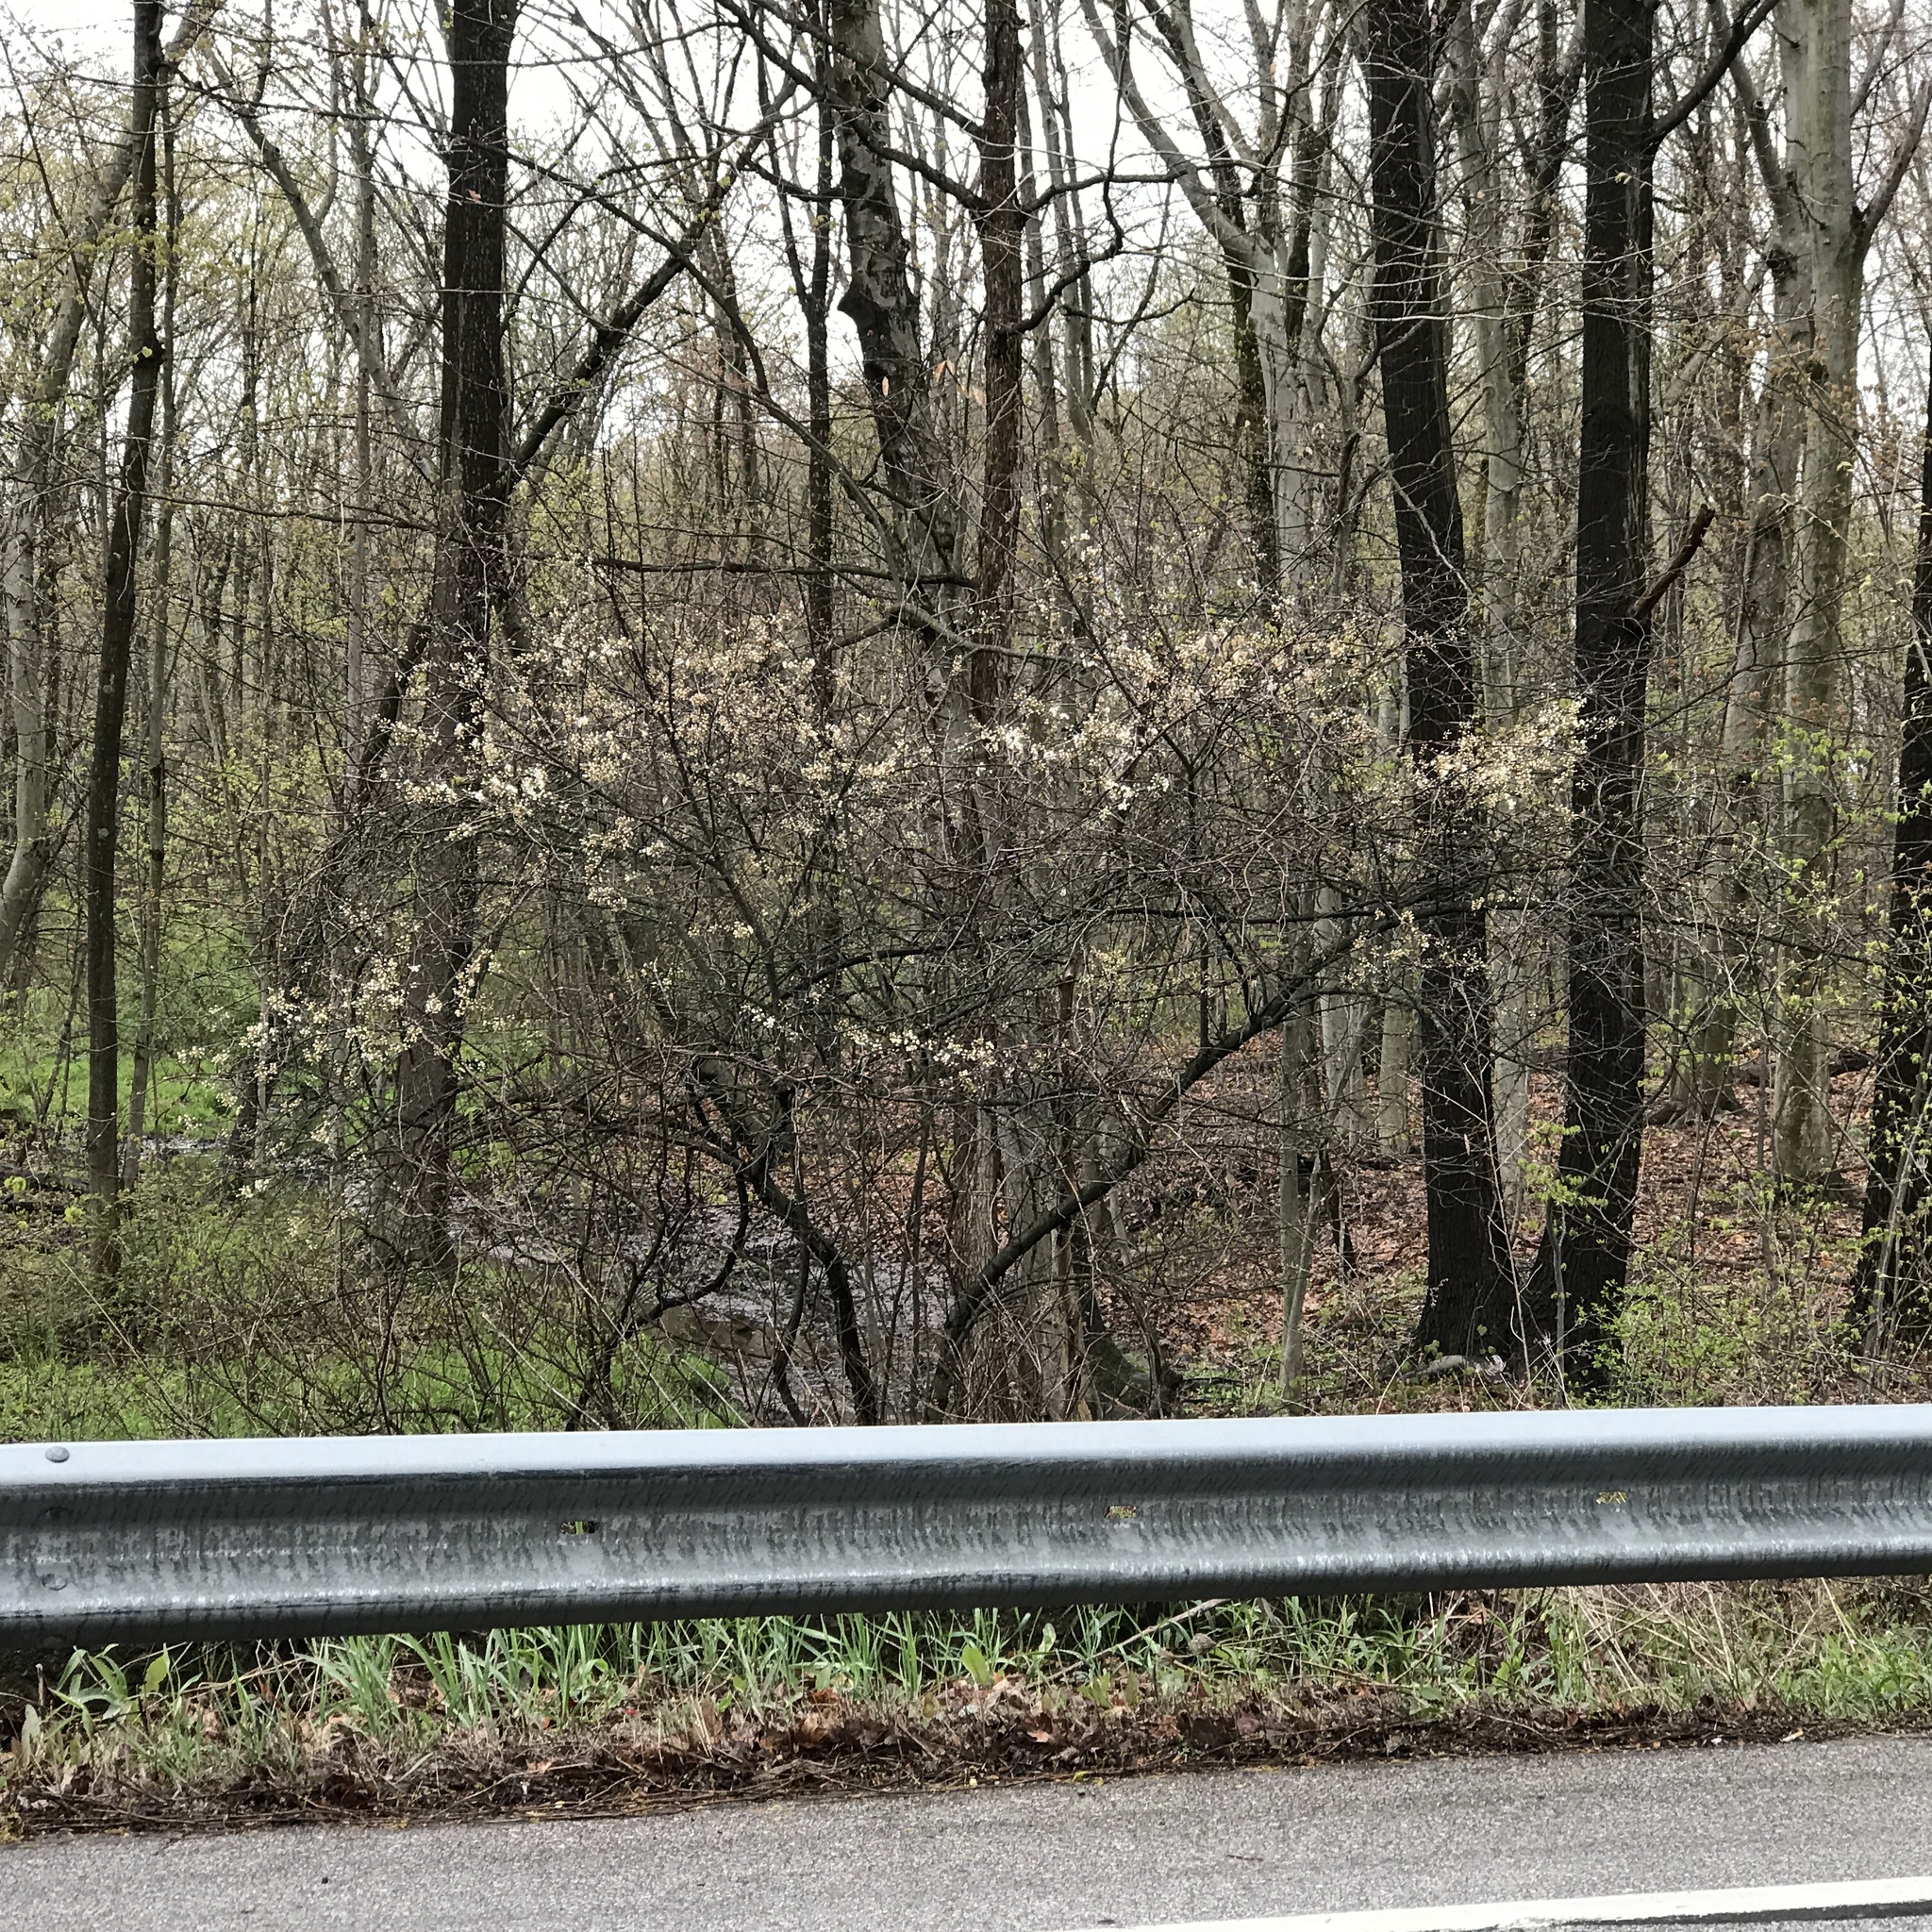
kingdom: Plantae
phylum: Tracheophyta
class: Magnoliopsida
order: Rosales
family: Rosaceae
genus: Prunus
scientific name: Prunus americana
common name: American plum
